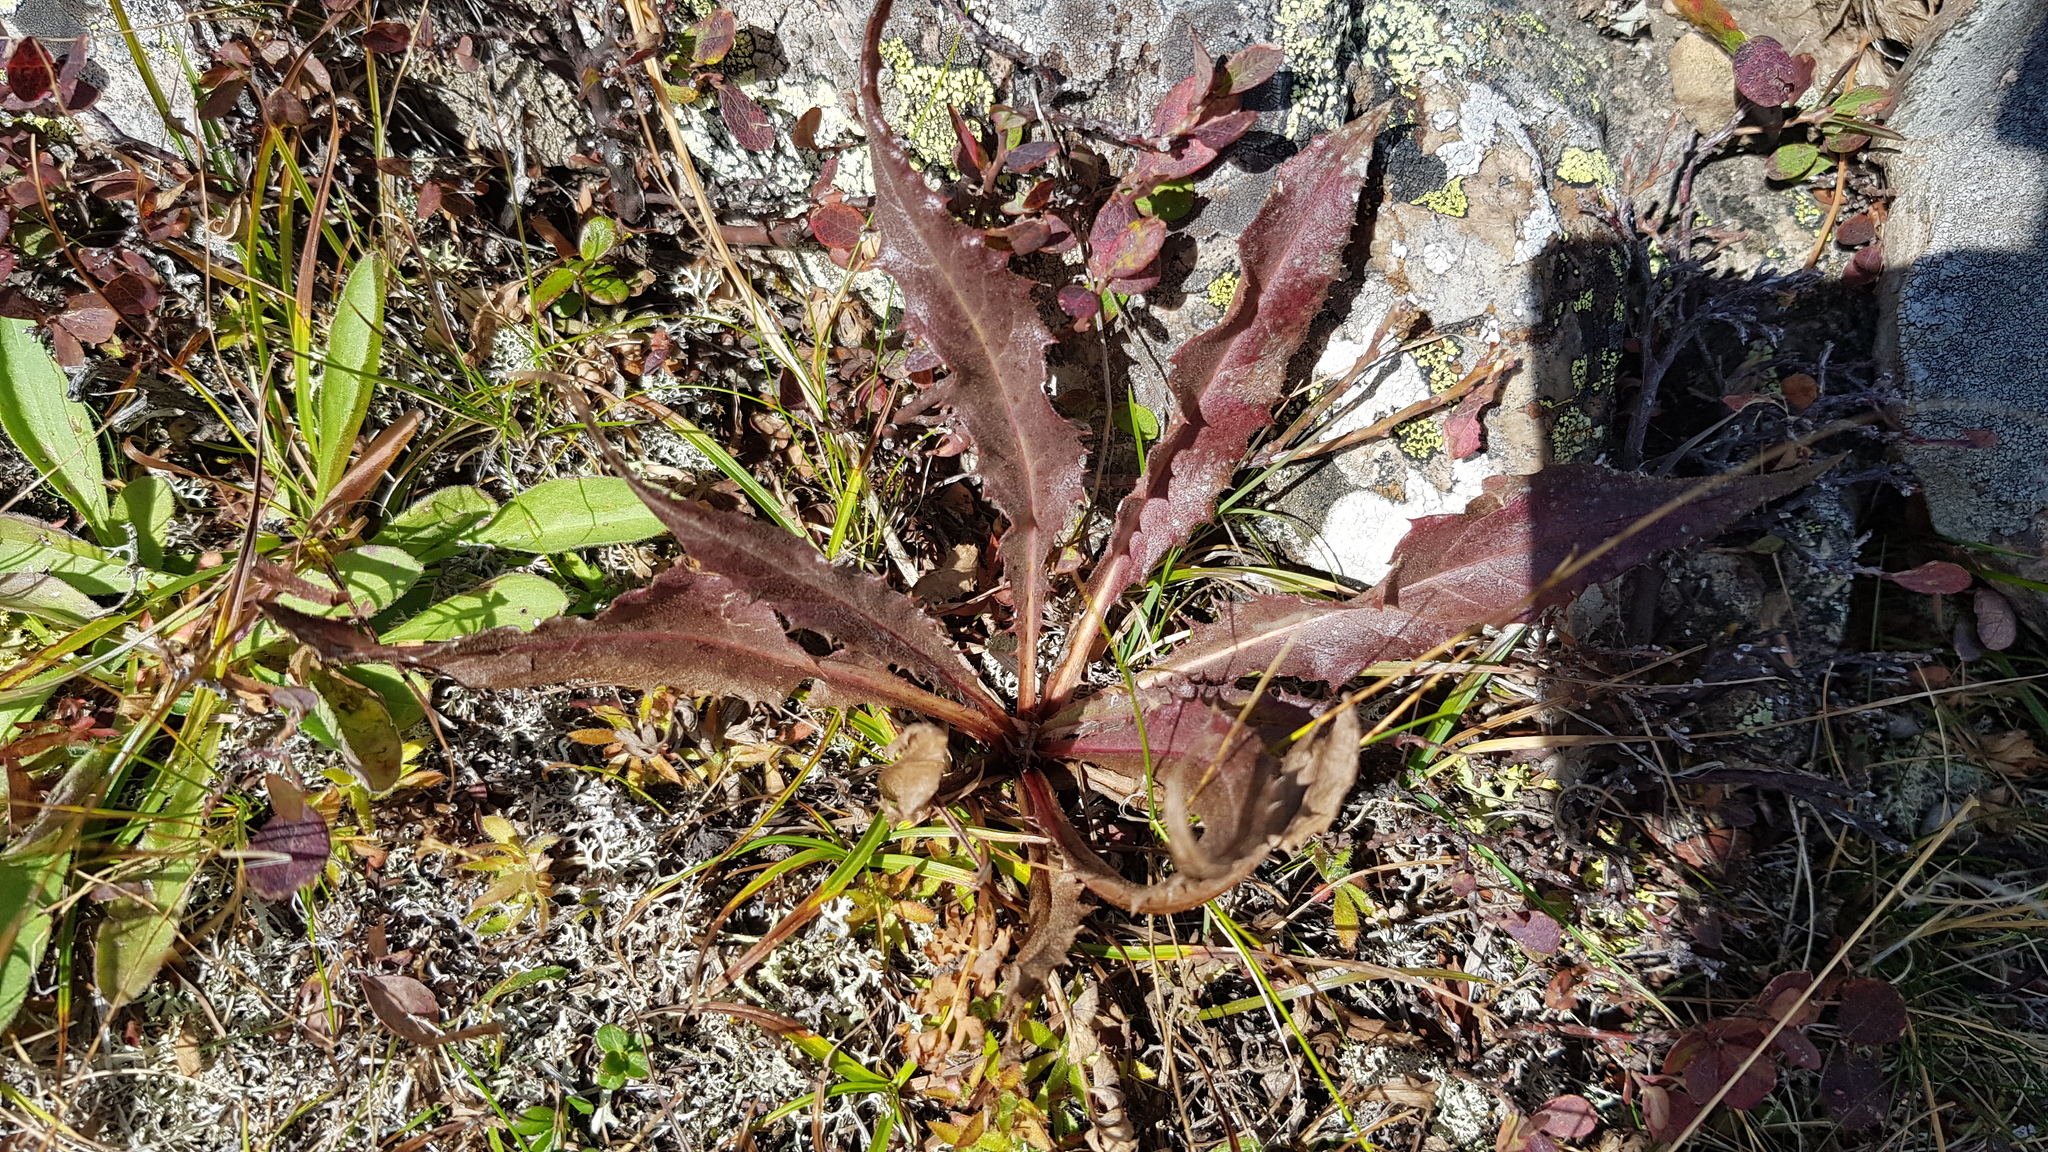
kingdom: Plantae
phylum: Tracheophyta
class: Magnoliopsida
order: Asterales
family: Asteraceae
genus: Taraxacum
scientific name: Taraxacum ceratophorum
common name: Horn-bearing dandelion
